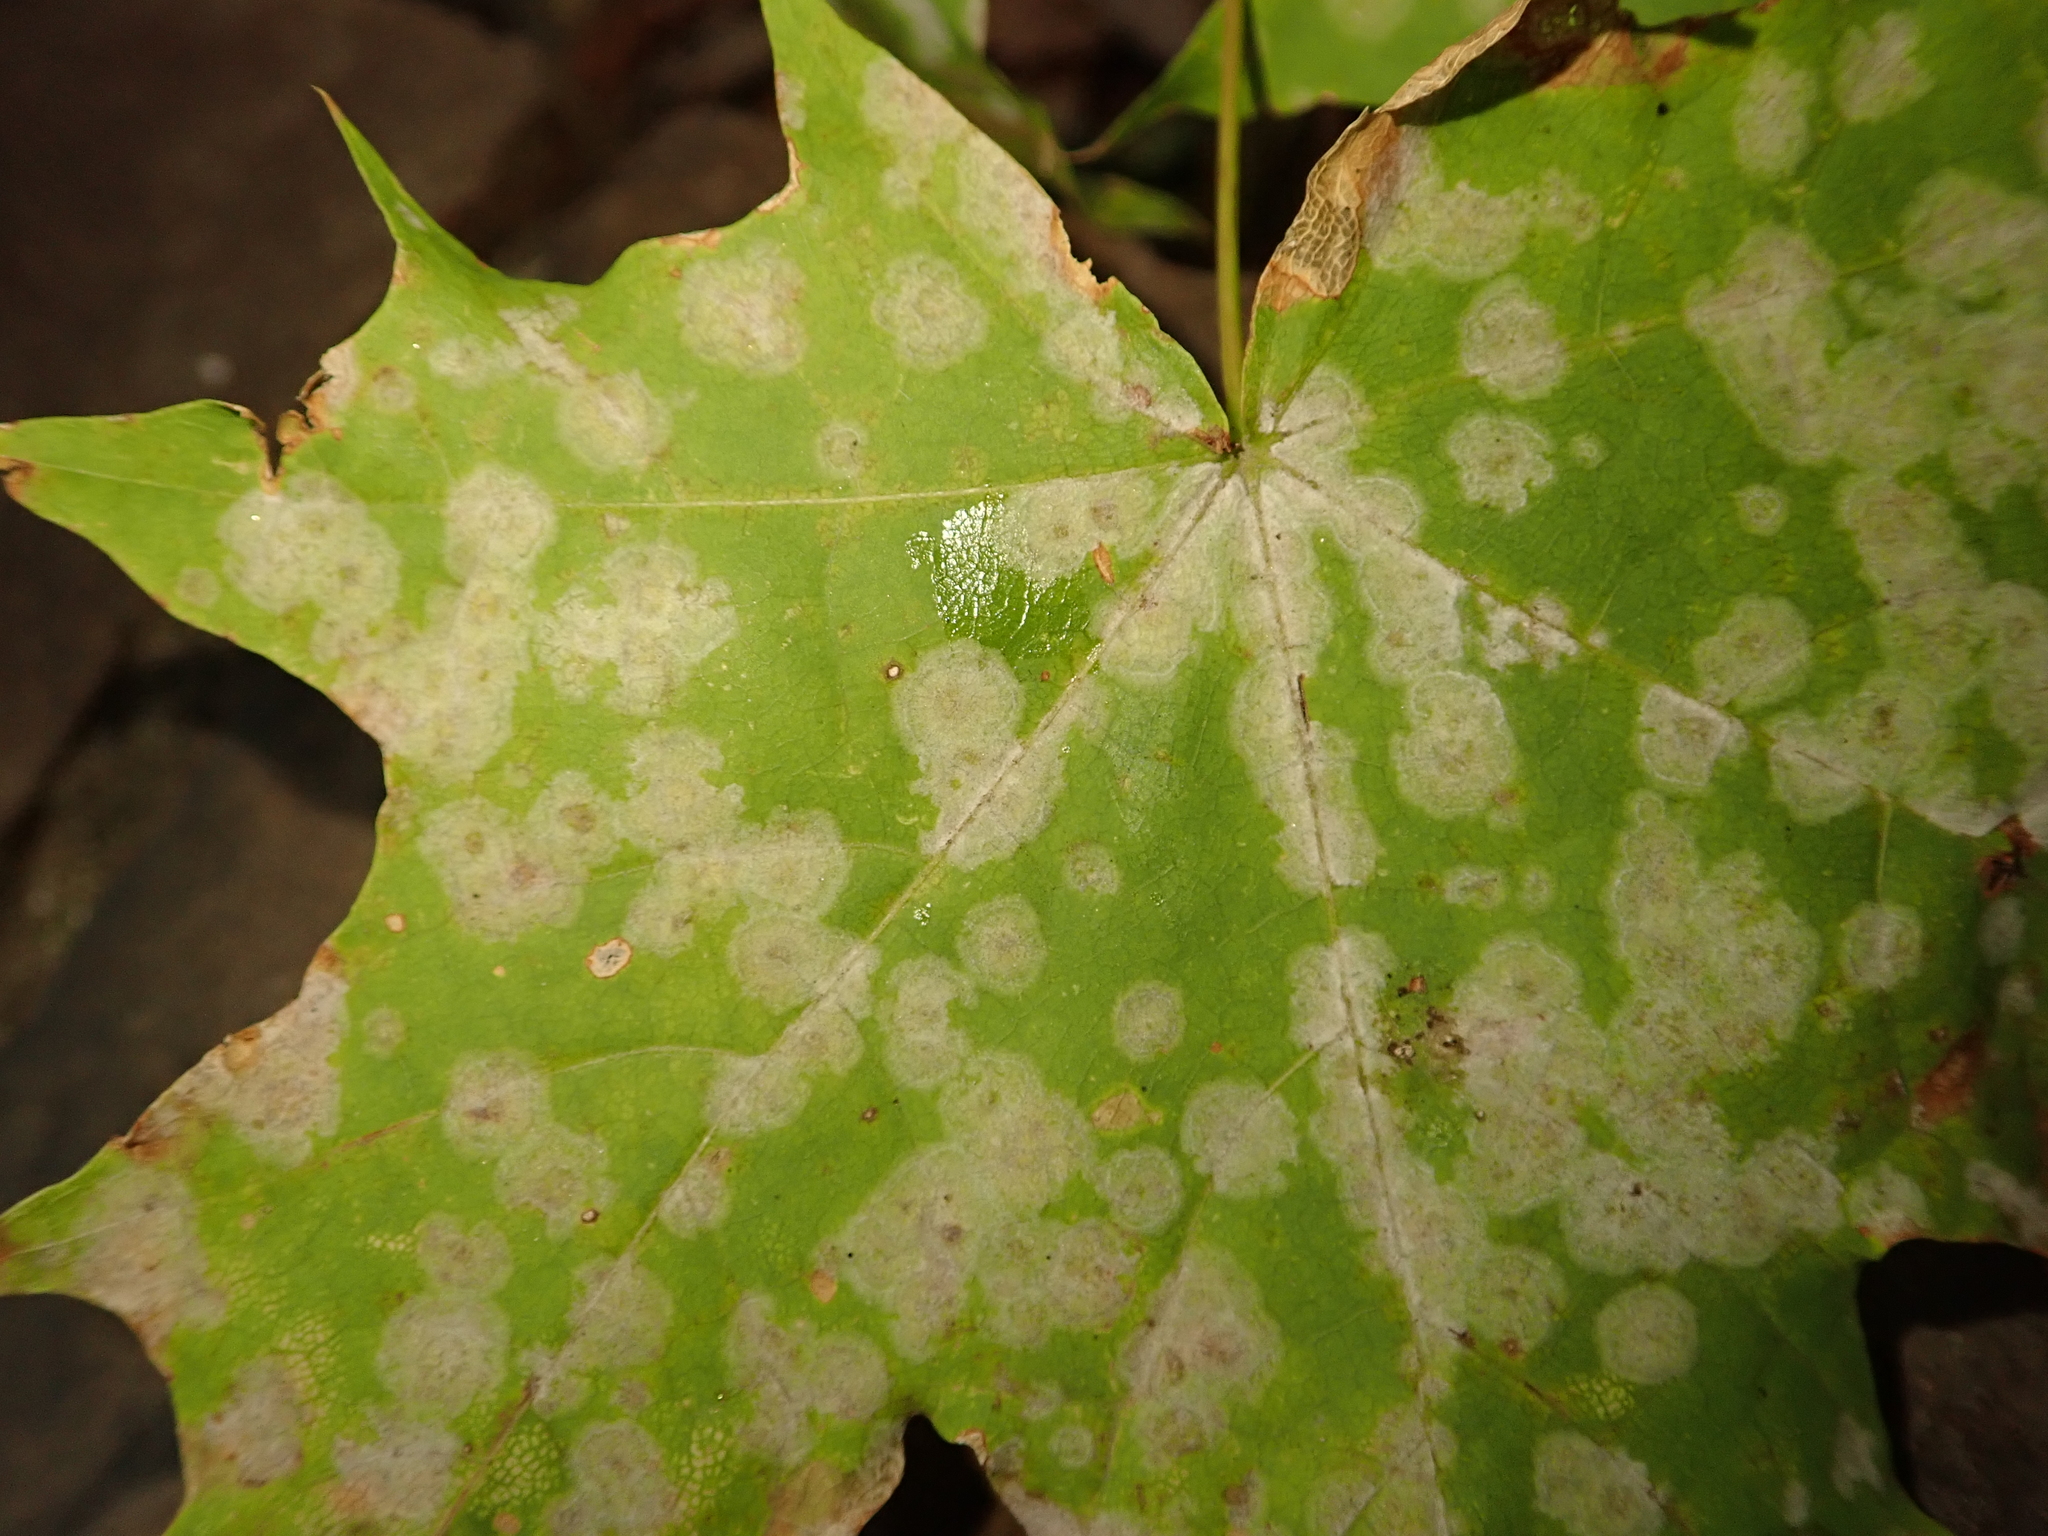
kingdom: Fungi
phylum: Ascomycota
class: Leotiomycetes
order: Helotiales
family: Erysiphaceae
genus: Sawadaea
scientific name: Sawadaea tulasnei
